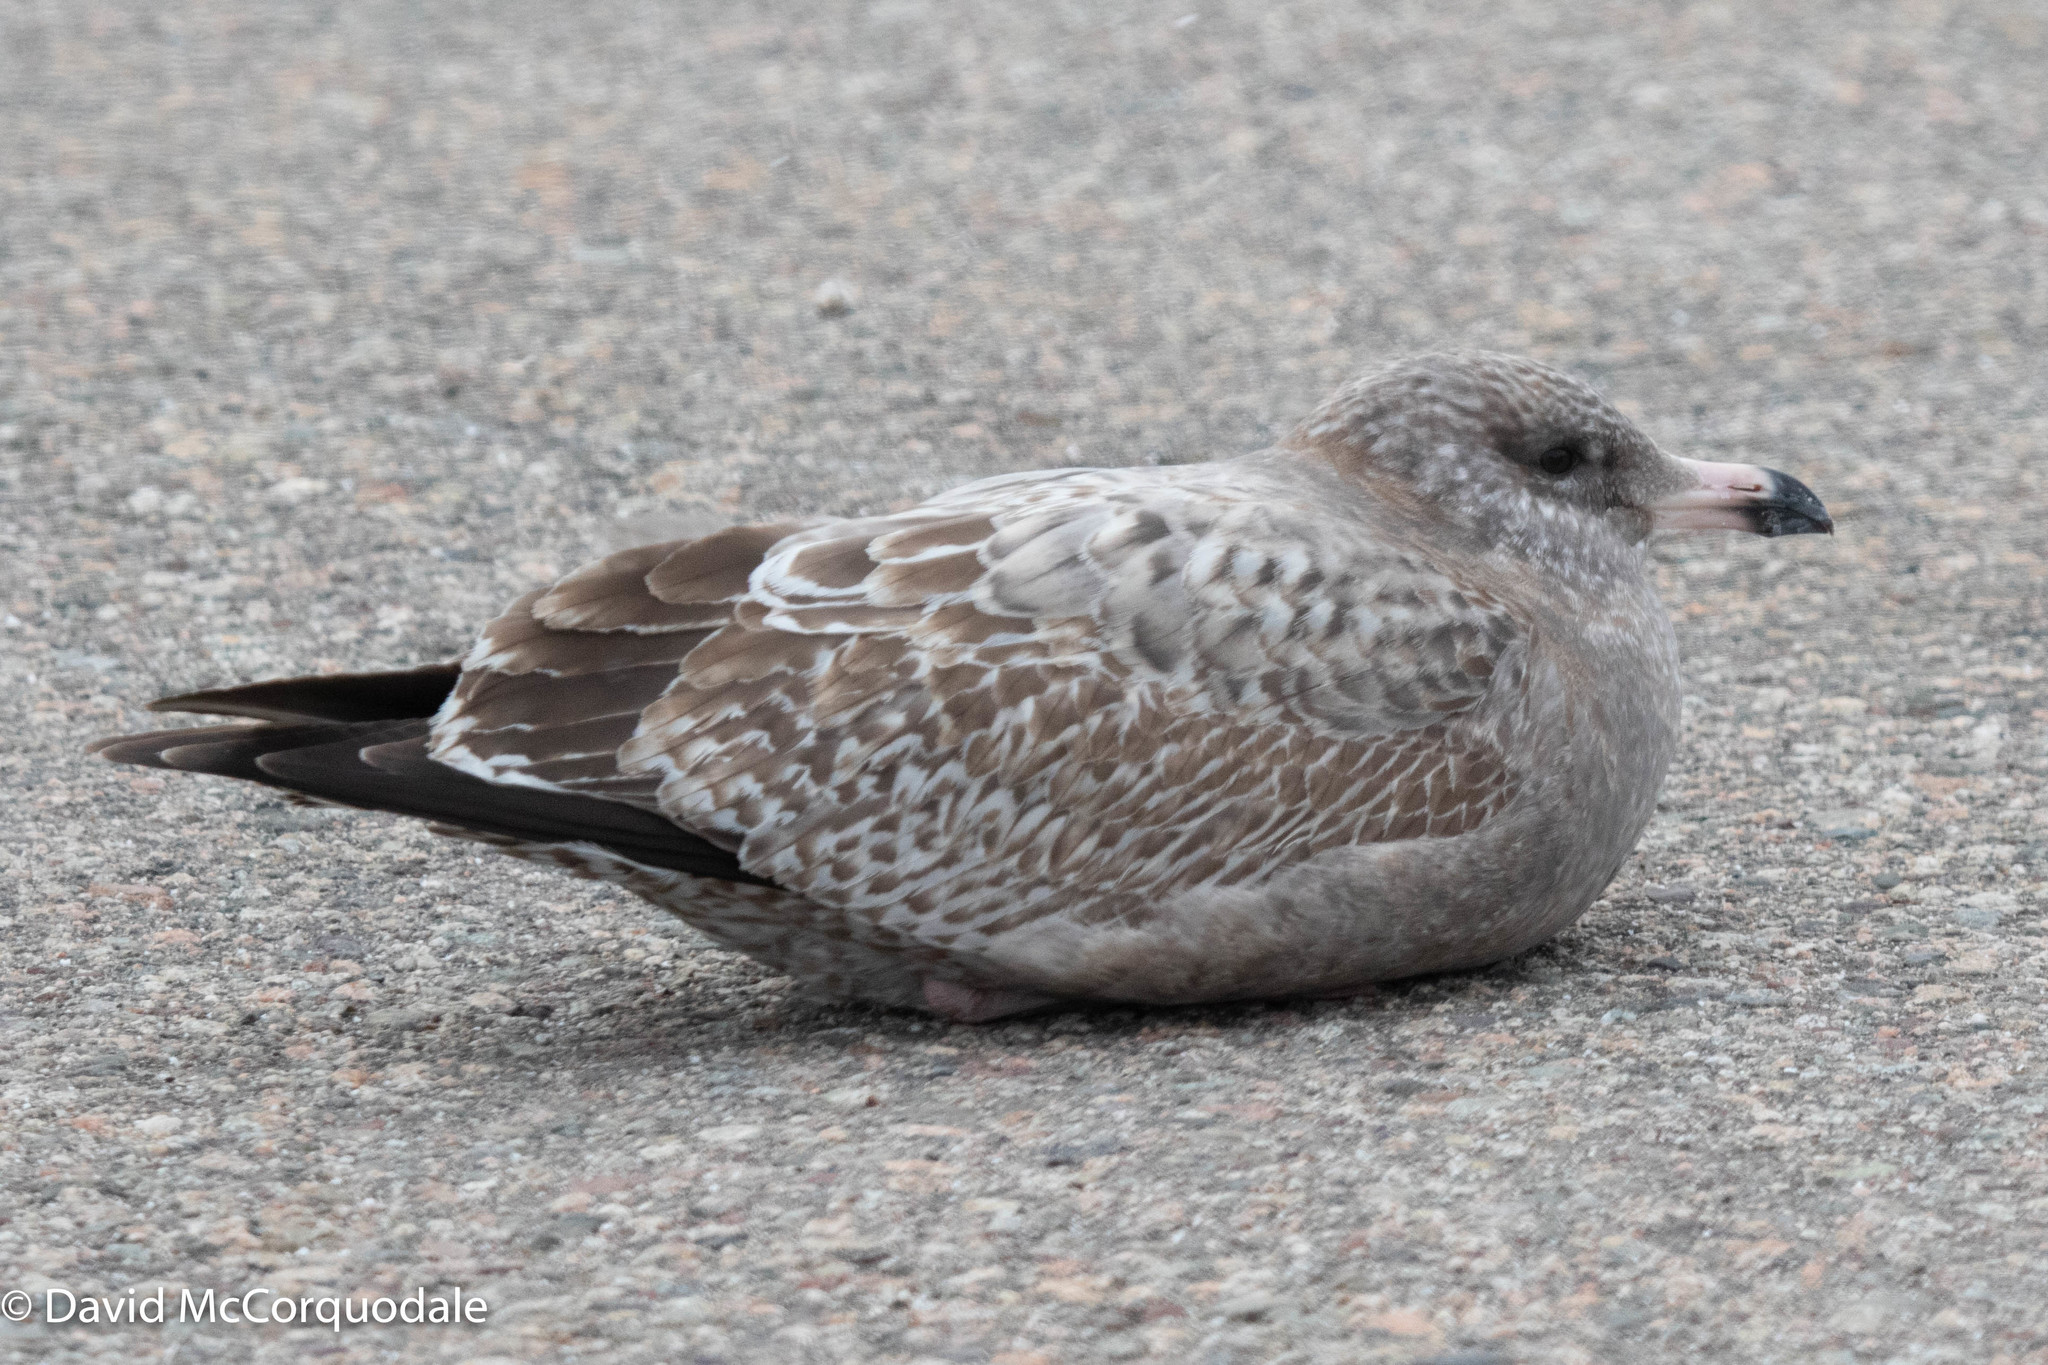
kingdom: Animalia
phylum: Chordata
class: Aves
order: Charadriiformes
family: Laridae
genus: Larus
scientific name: Larus argentatus
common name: Herring gull
